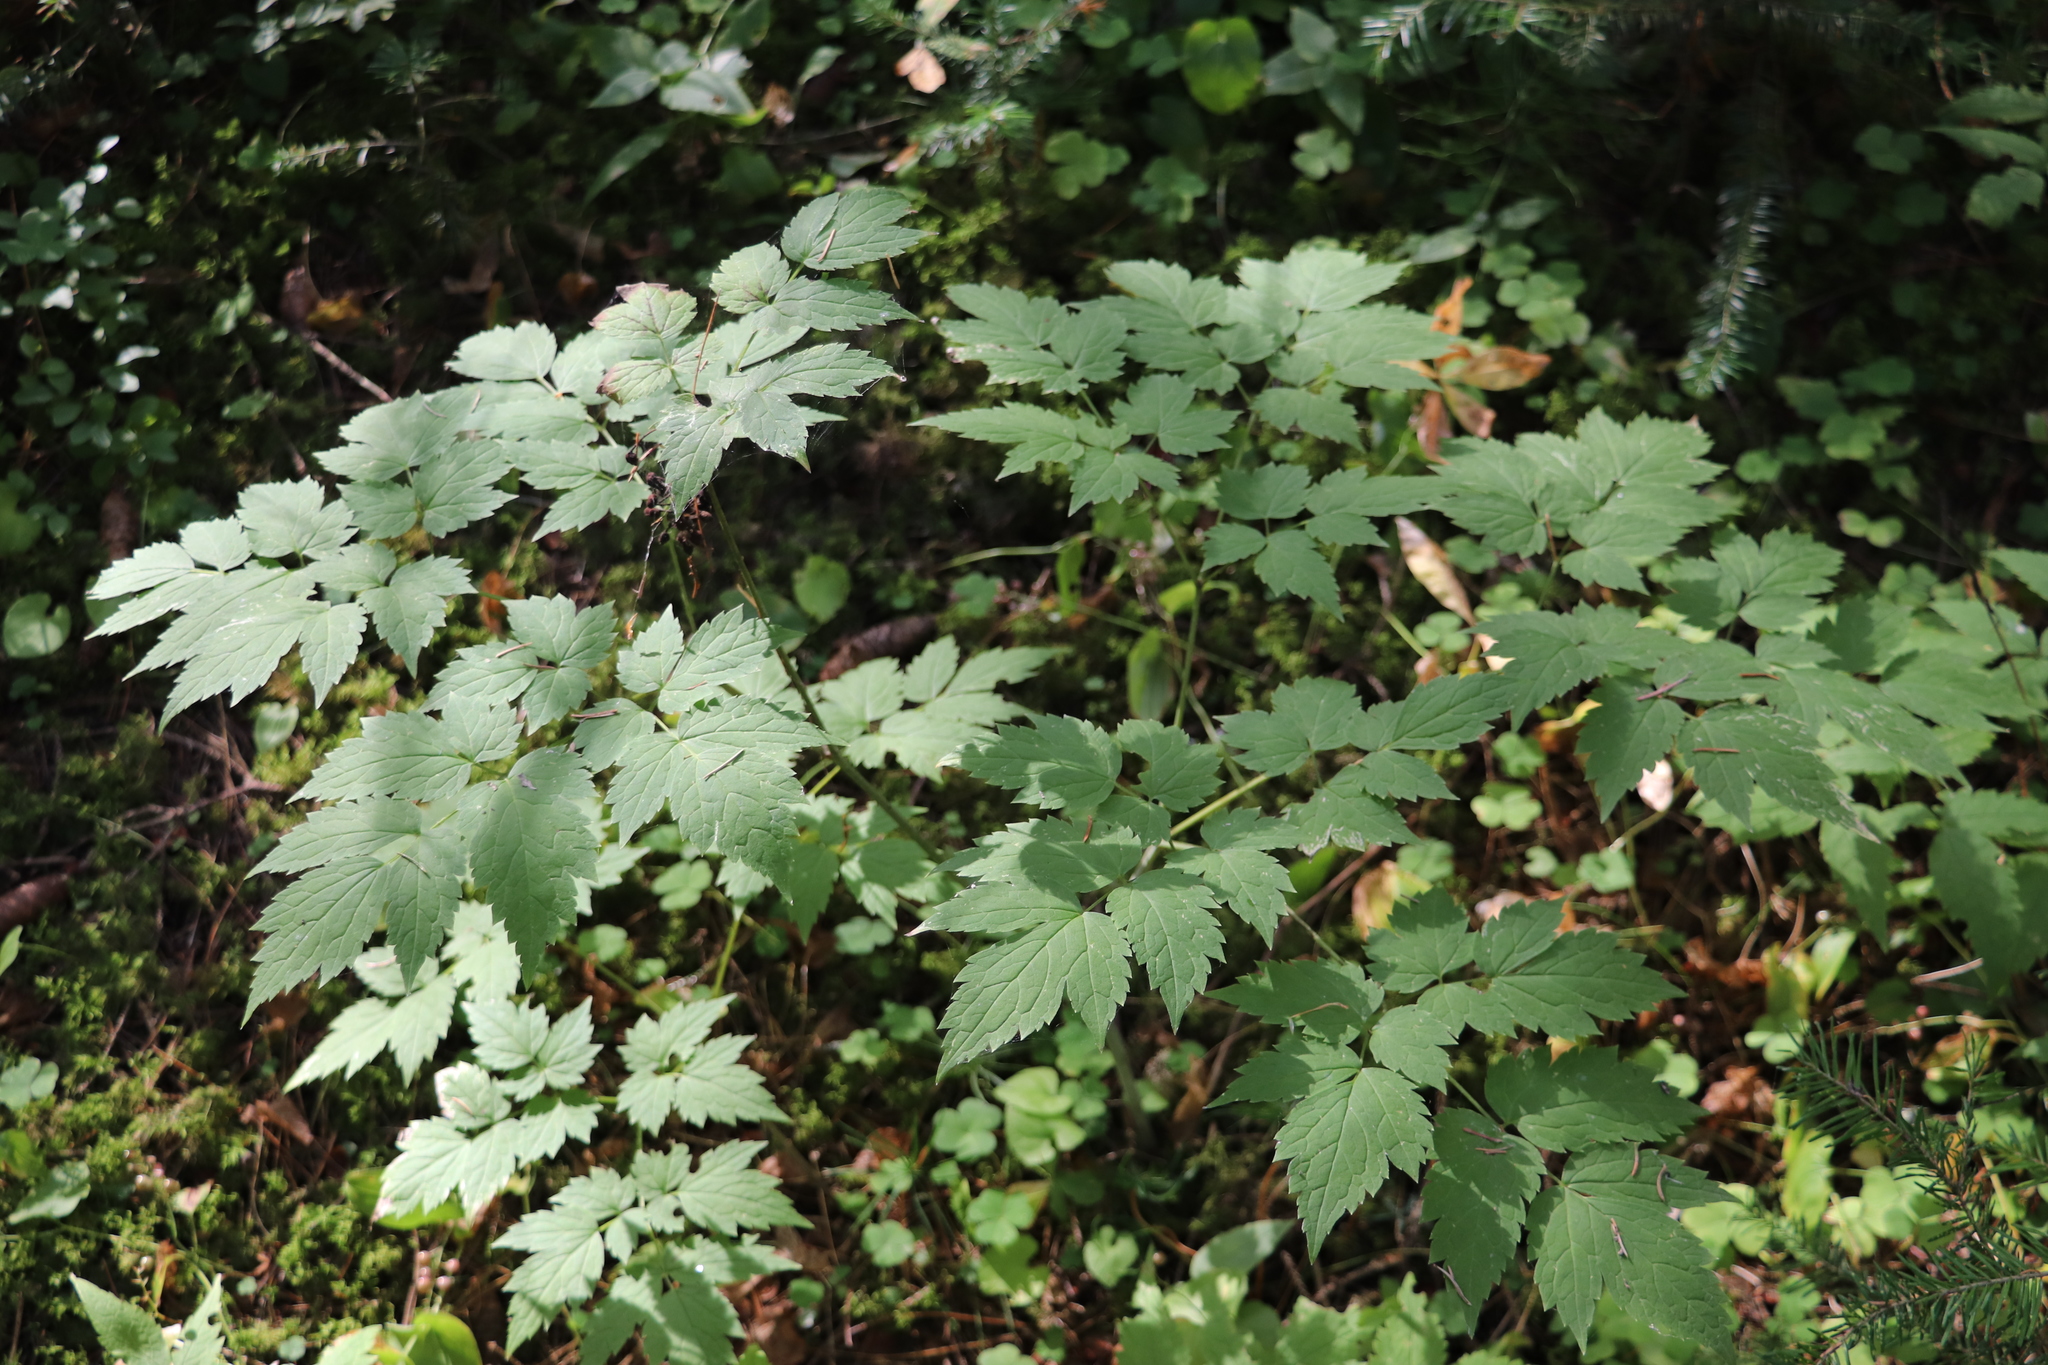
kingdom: Plantae
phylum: Tracheophyta
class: Magnoliopsida
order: Ranunculales
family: Ranunculaceae
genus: Actaea
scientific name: Actaea spicata
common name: Baneberry
